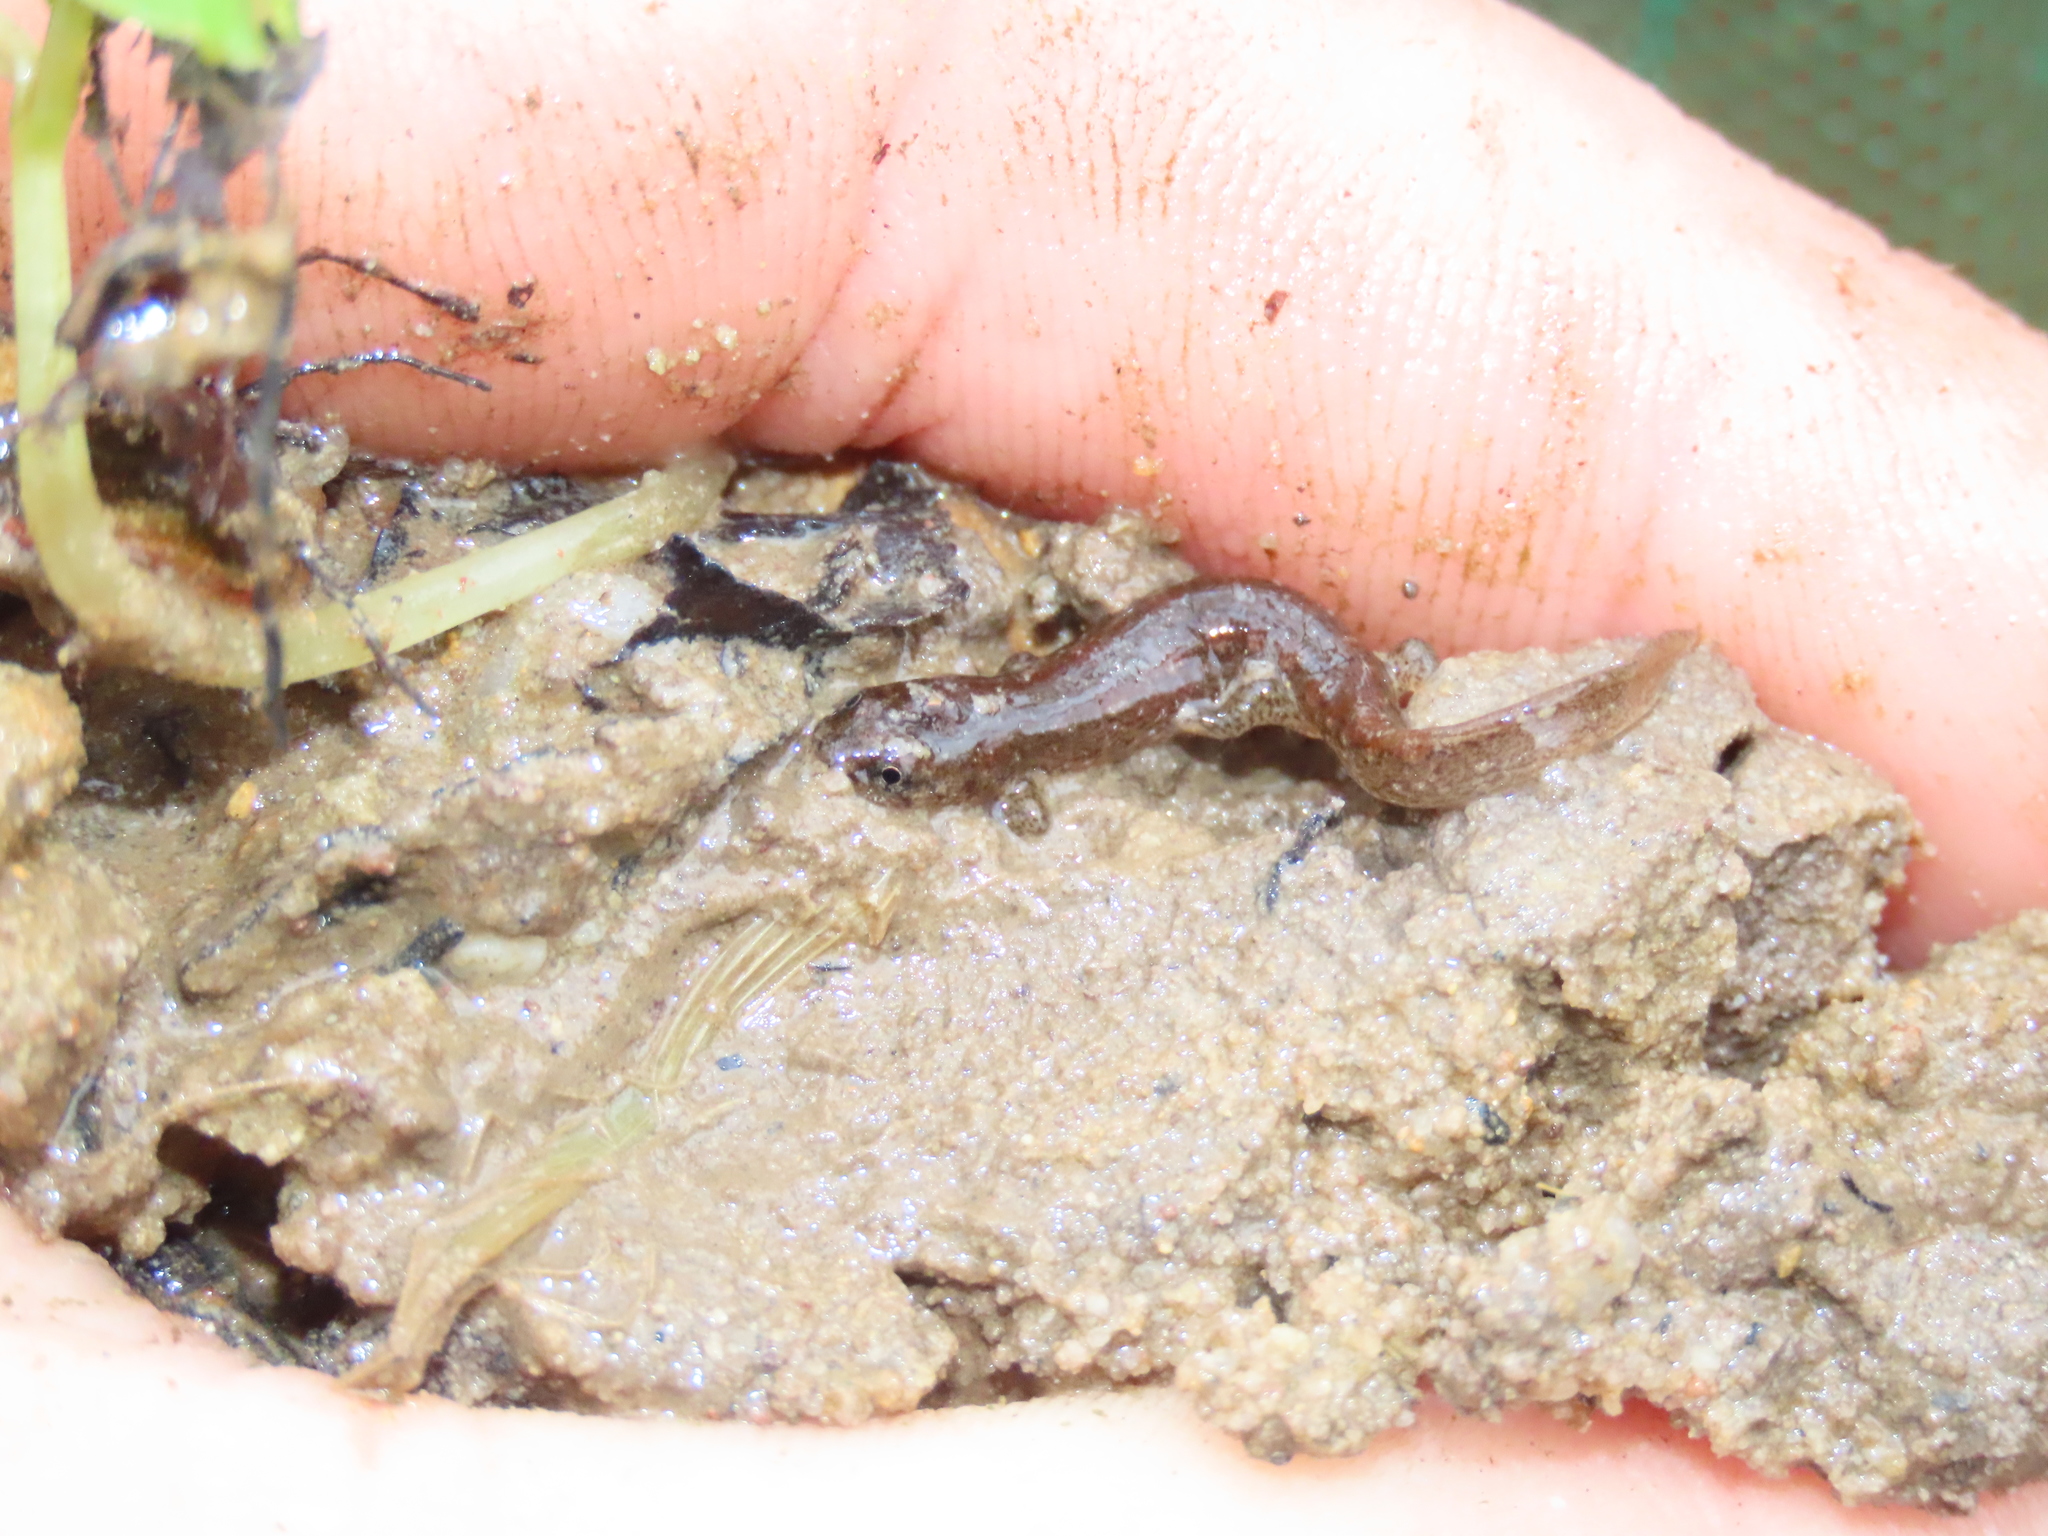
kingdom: Animalia
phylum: Chordata
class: Amphibia
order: Caudata
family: Plethodontidae
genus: Desmognathus
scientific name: Desmognathus fuscus
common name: Northern dusky salamander
